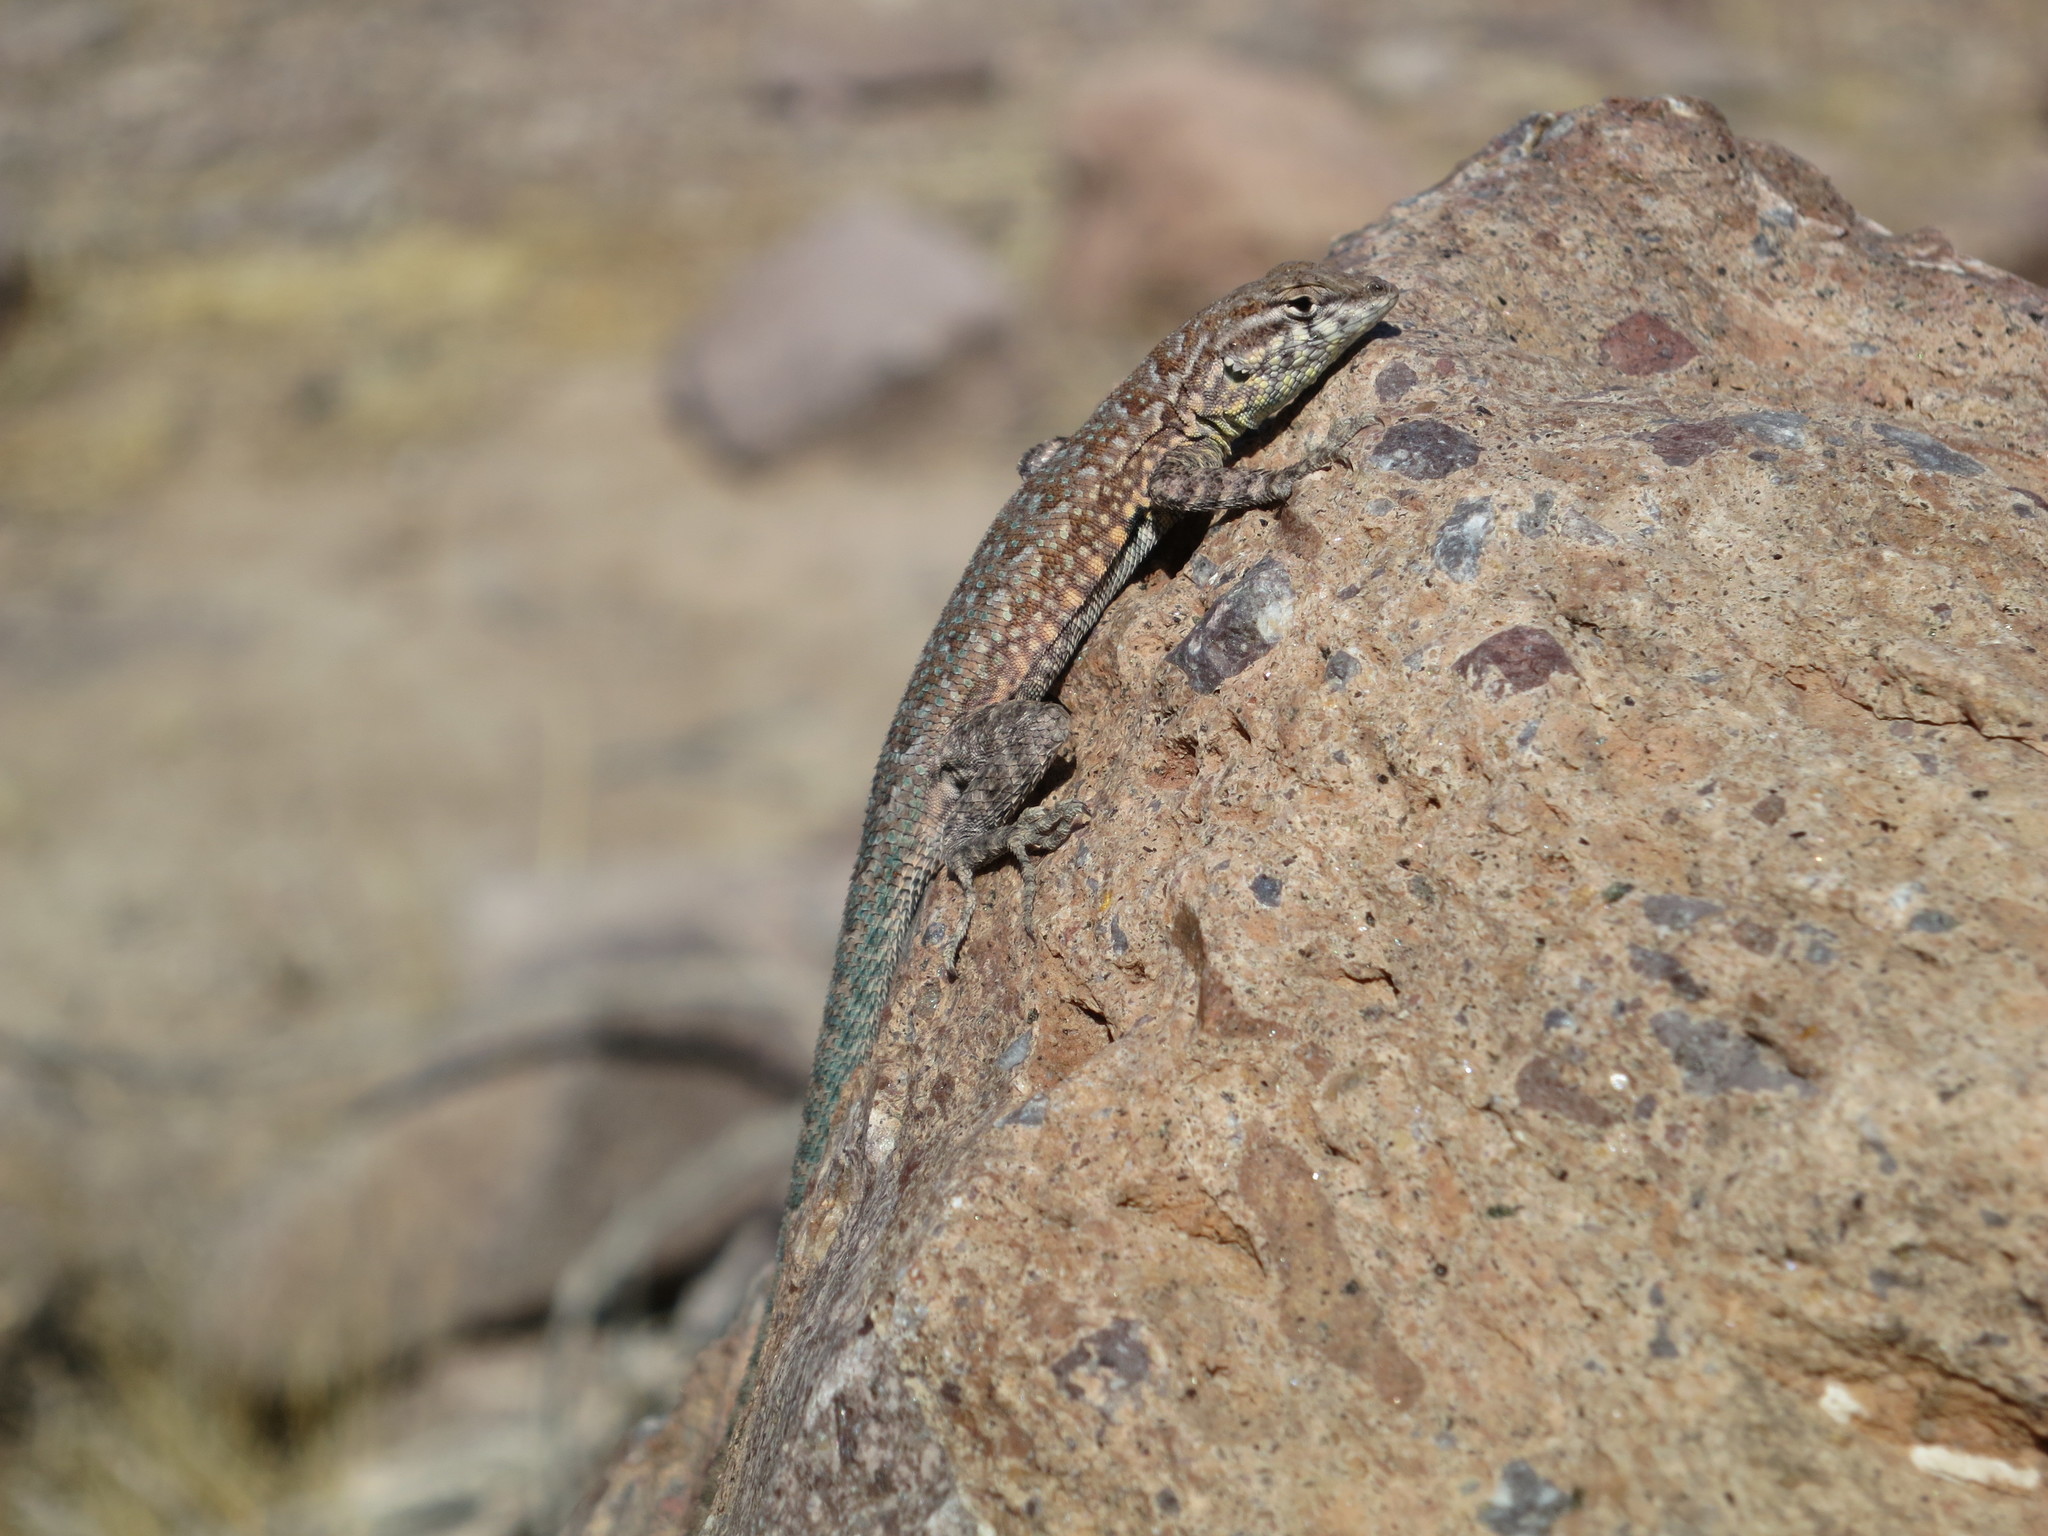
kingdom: Animalia
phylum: Chordata
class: Squamata
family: Phrynosomatidae
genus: Uta
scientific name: Uta stansburiana
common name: Side-blotched lizard
